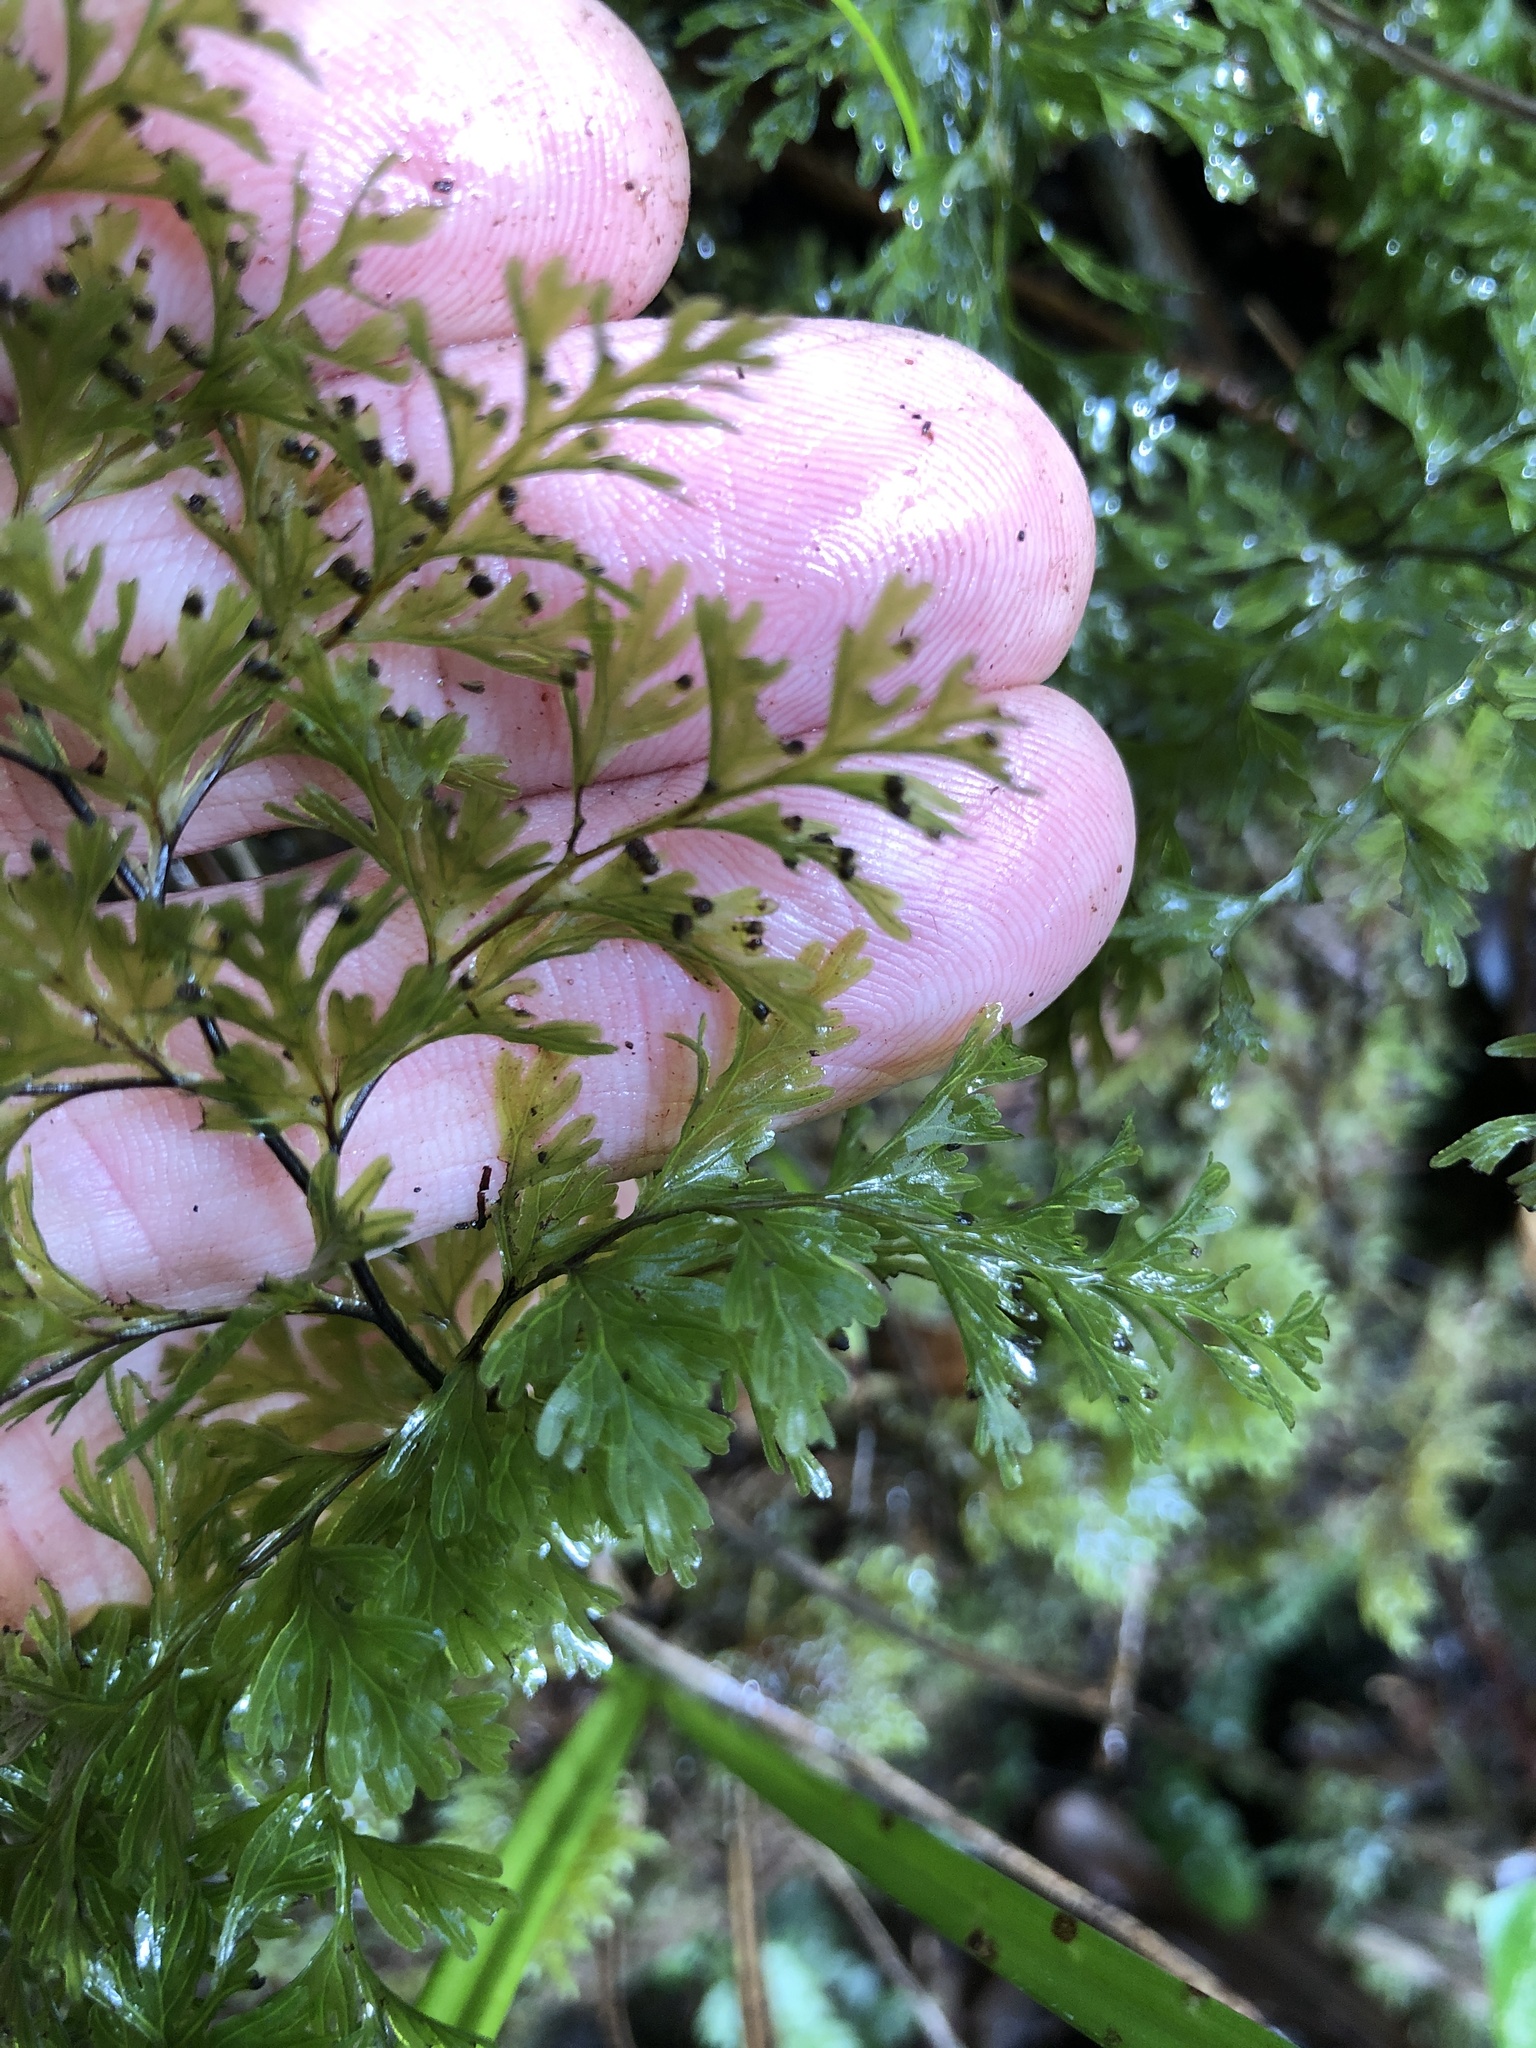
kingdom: Plantae
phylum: Tracheophyta
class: Polypodiopsida
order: Hymenophyllales
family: Hymenophyllaceae
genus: Hymenophyllum
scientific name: Hymenophyllum demissum
